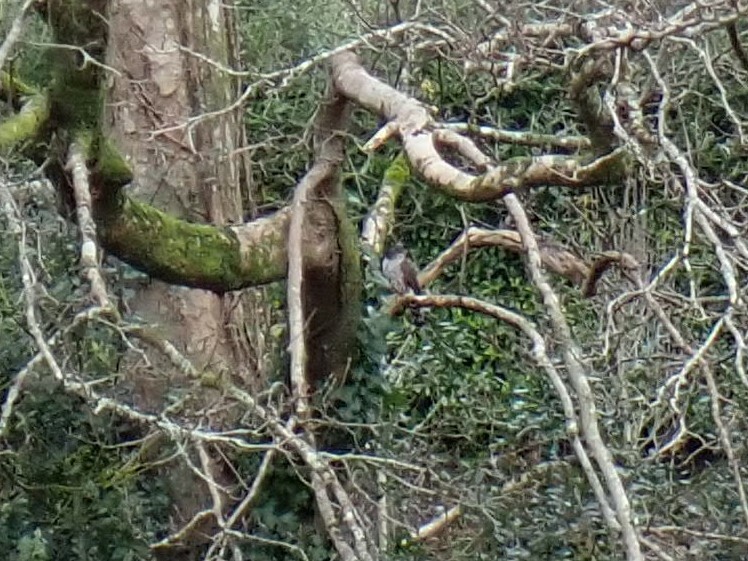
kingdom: Animalia
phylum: Chordata
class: Aves
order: Accipitriformes
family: Accipitridae
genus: Accipiter
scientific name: Accipiter nisus
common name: Eurasian sparrowhawk
